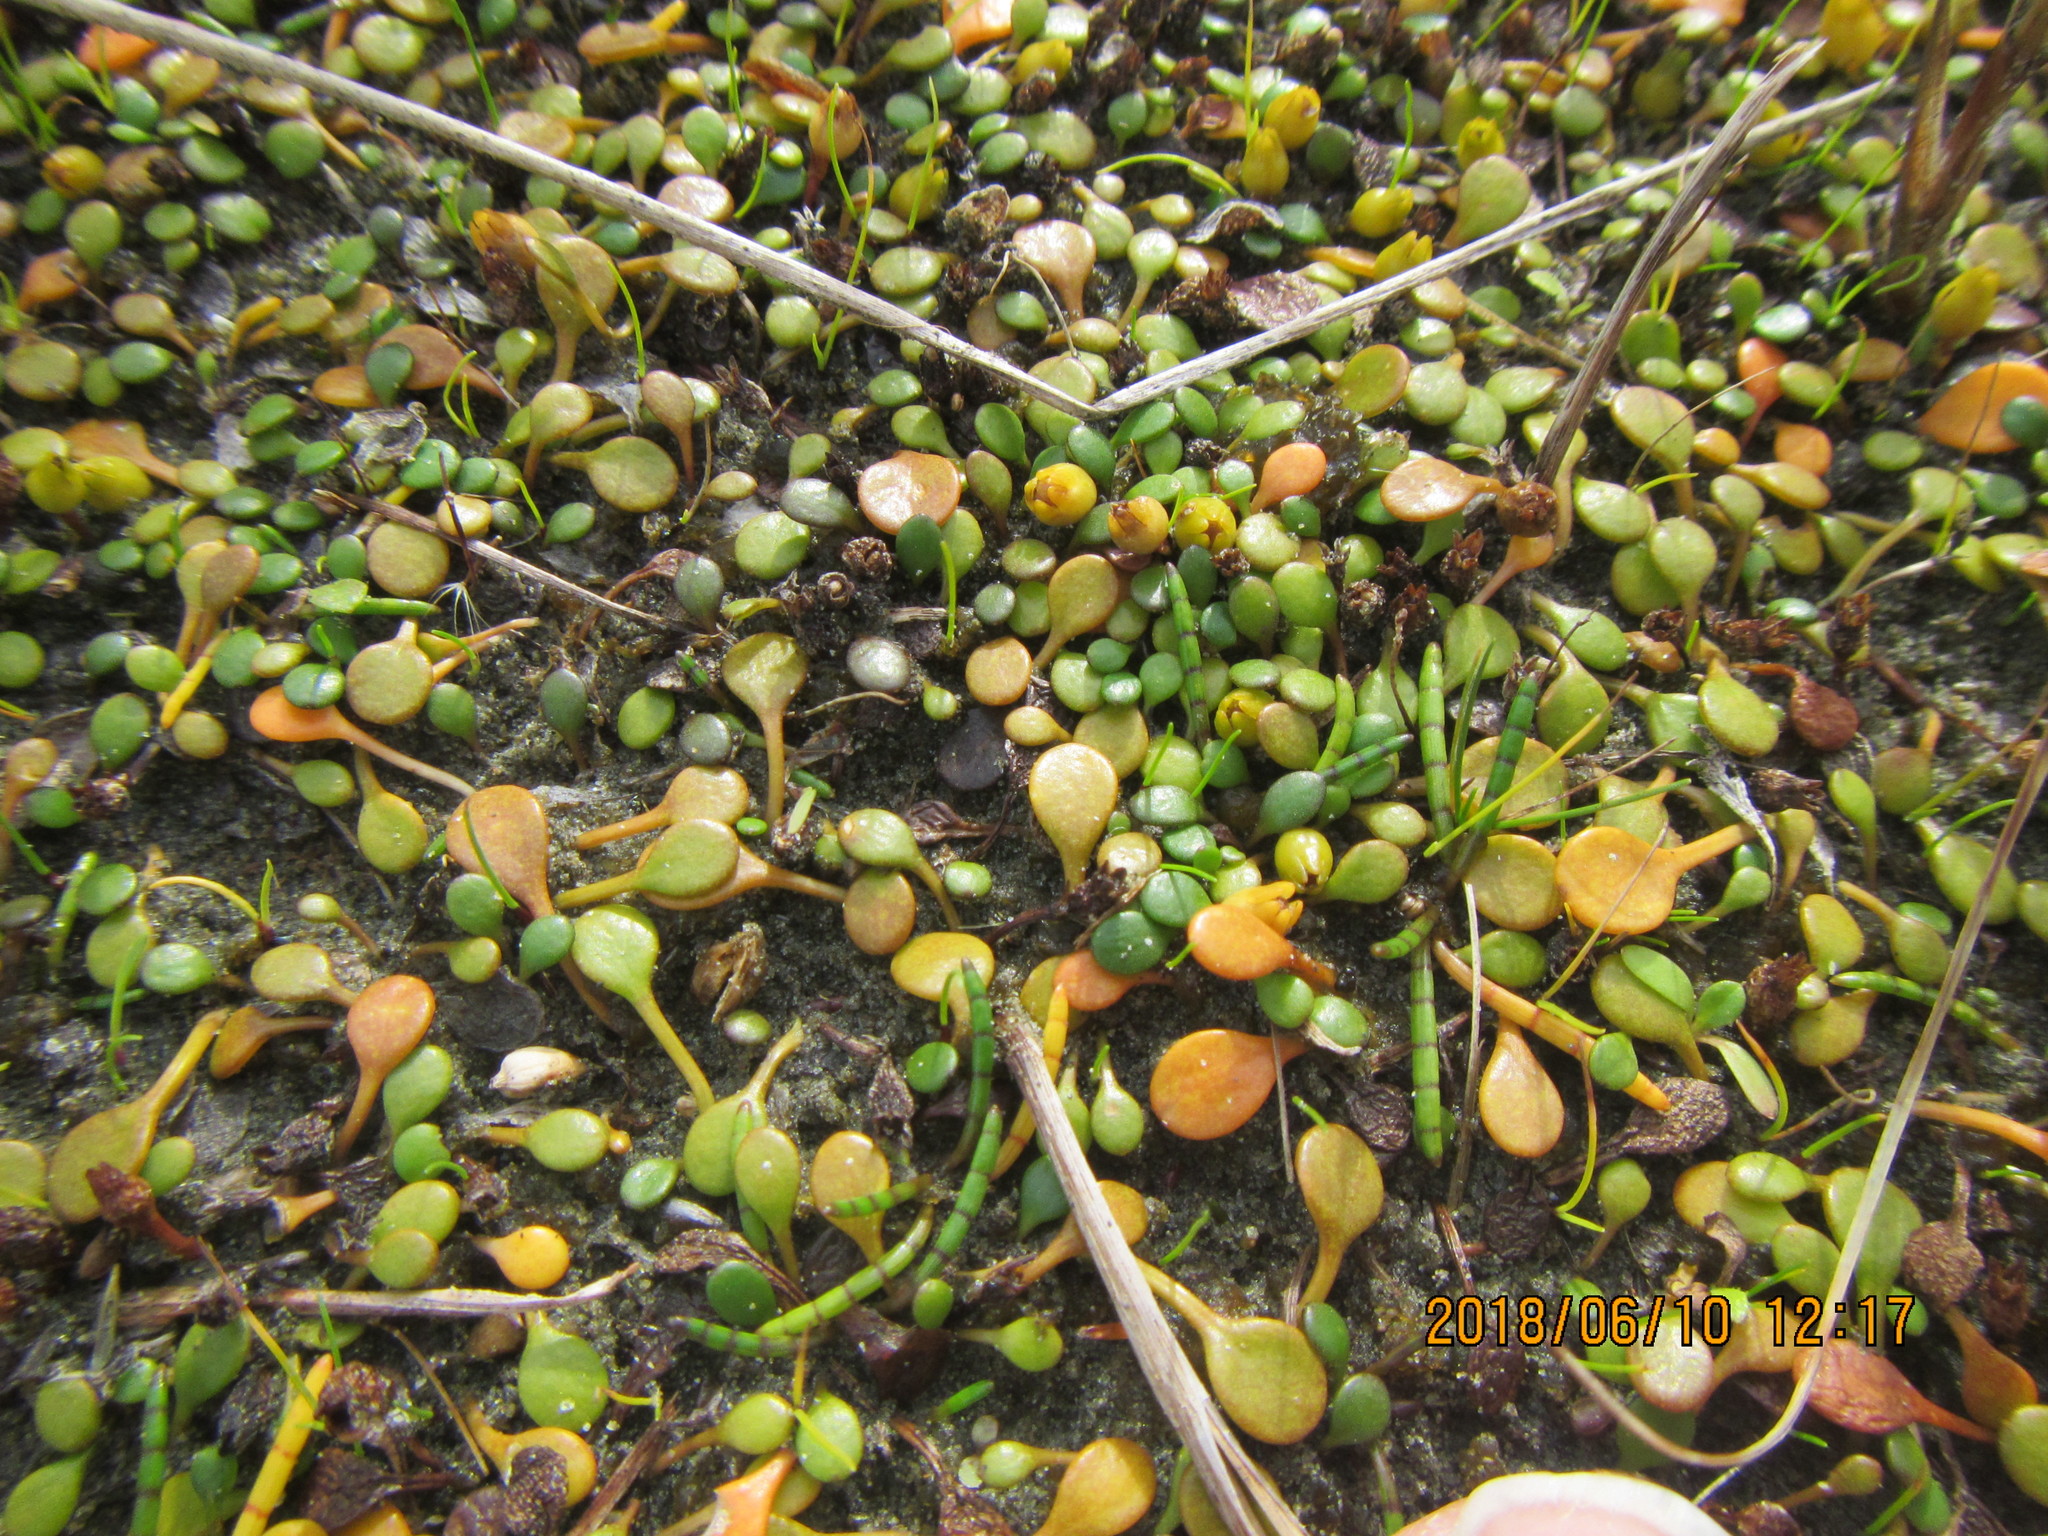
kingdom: Plantae
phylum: Tracheophyta
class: Magnoliopsida
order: Asterales
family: Goodeniaceae
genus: Goodenia
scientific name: Goodenia heenanii
